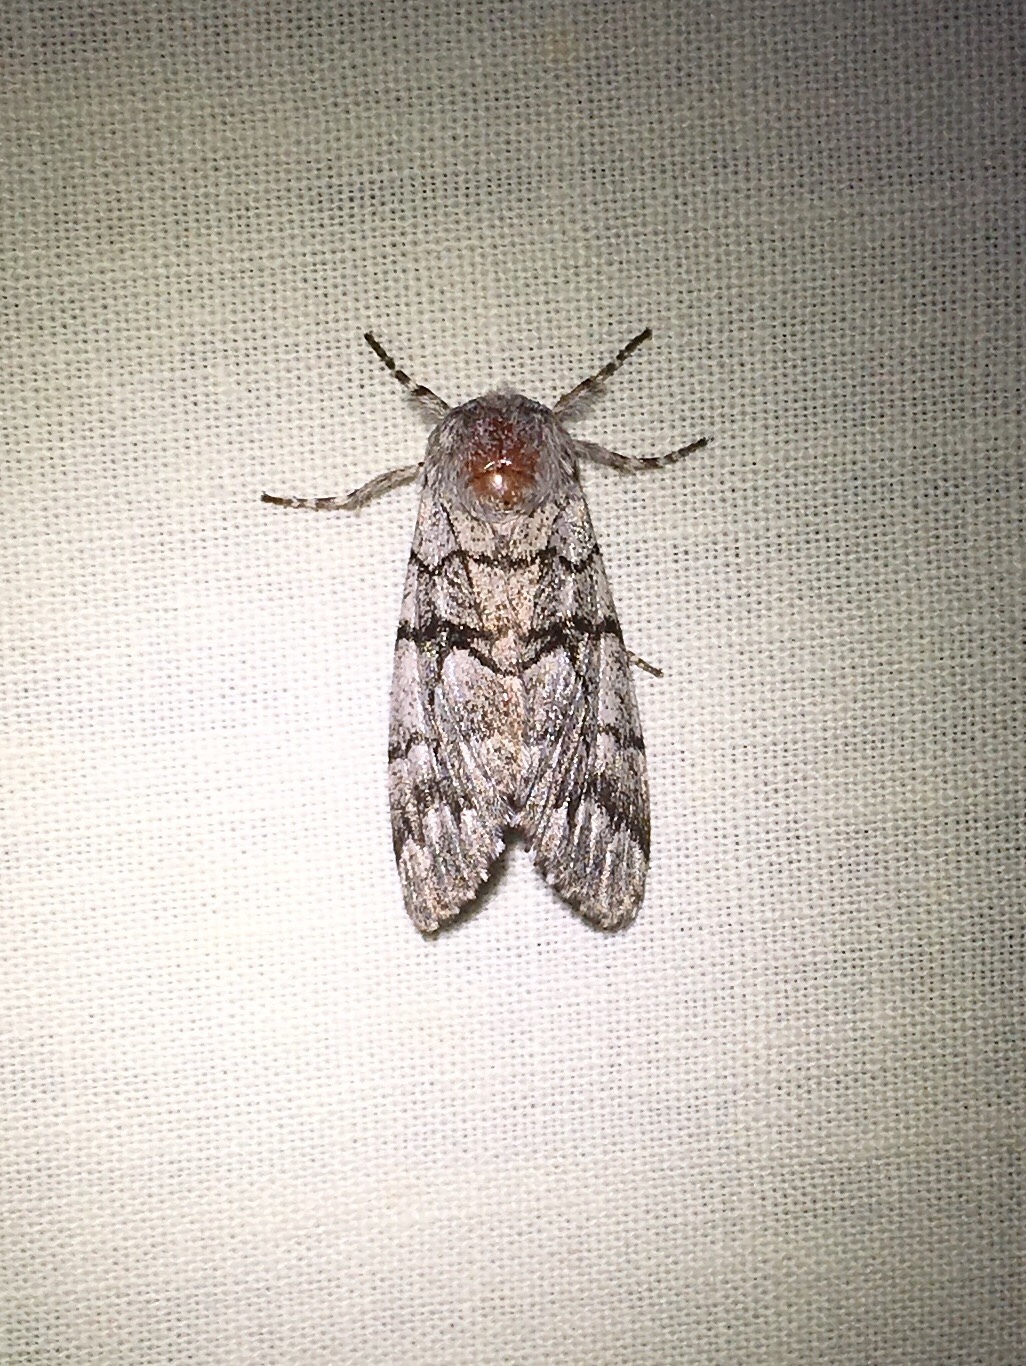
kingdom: Animalia
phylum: Arthropoda
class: Insecta
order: Lepidoptera
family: Noctuidae
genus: Panthea
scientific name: Panthea furcilla
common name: Eastern panthea moth
